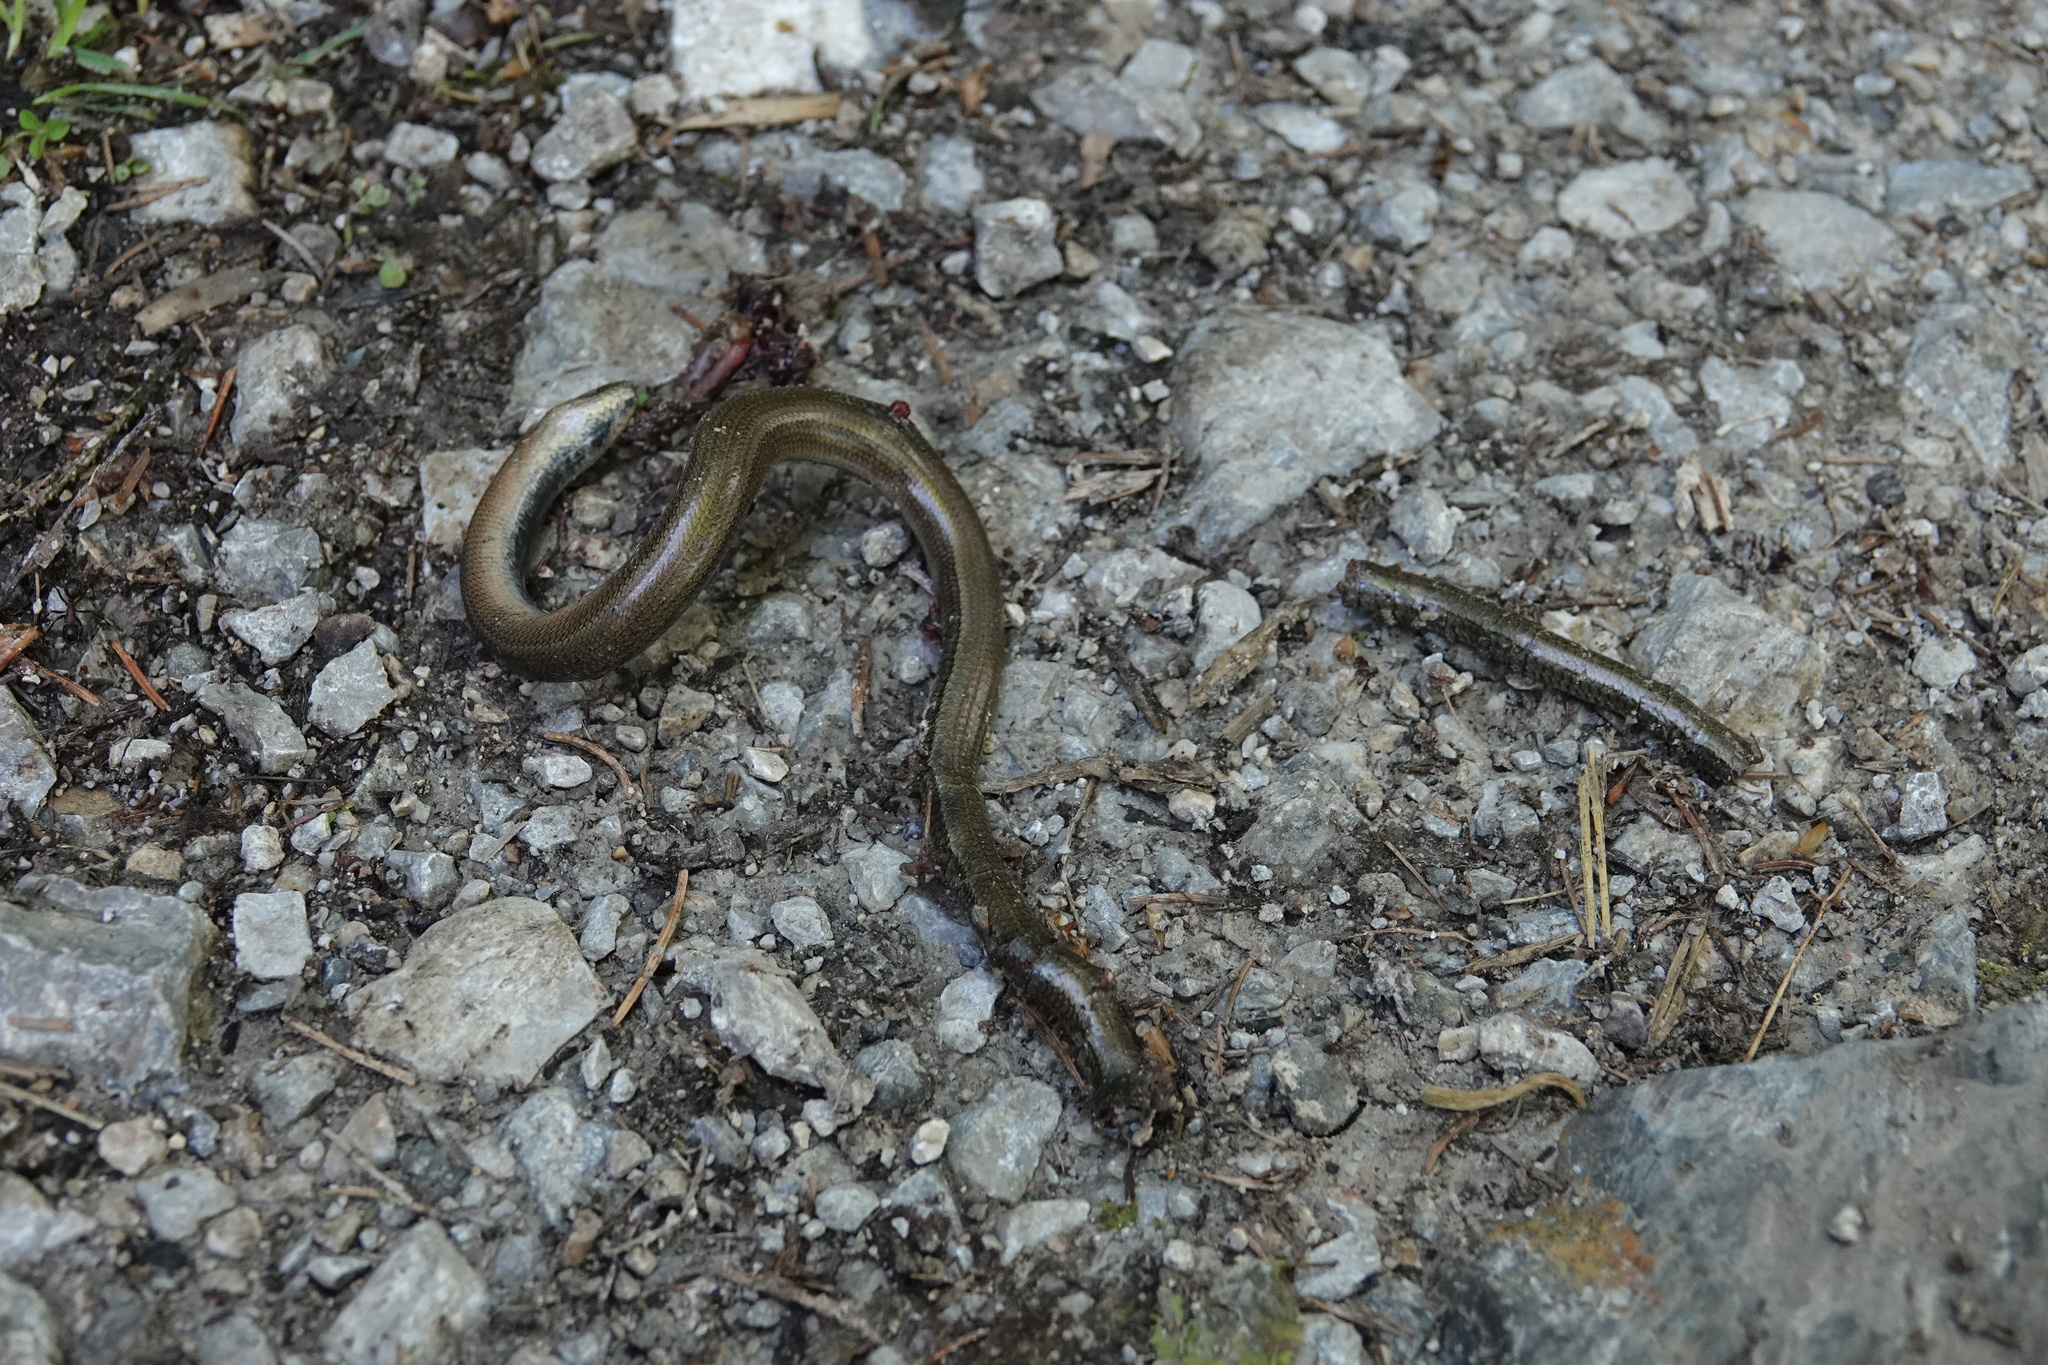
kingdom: Animalia
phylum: Chordata
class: Squamata
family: Anguidae
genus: Anguis
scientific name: Anguis colchica
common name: Slow worm
